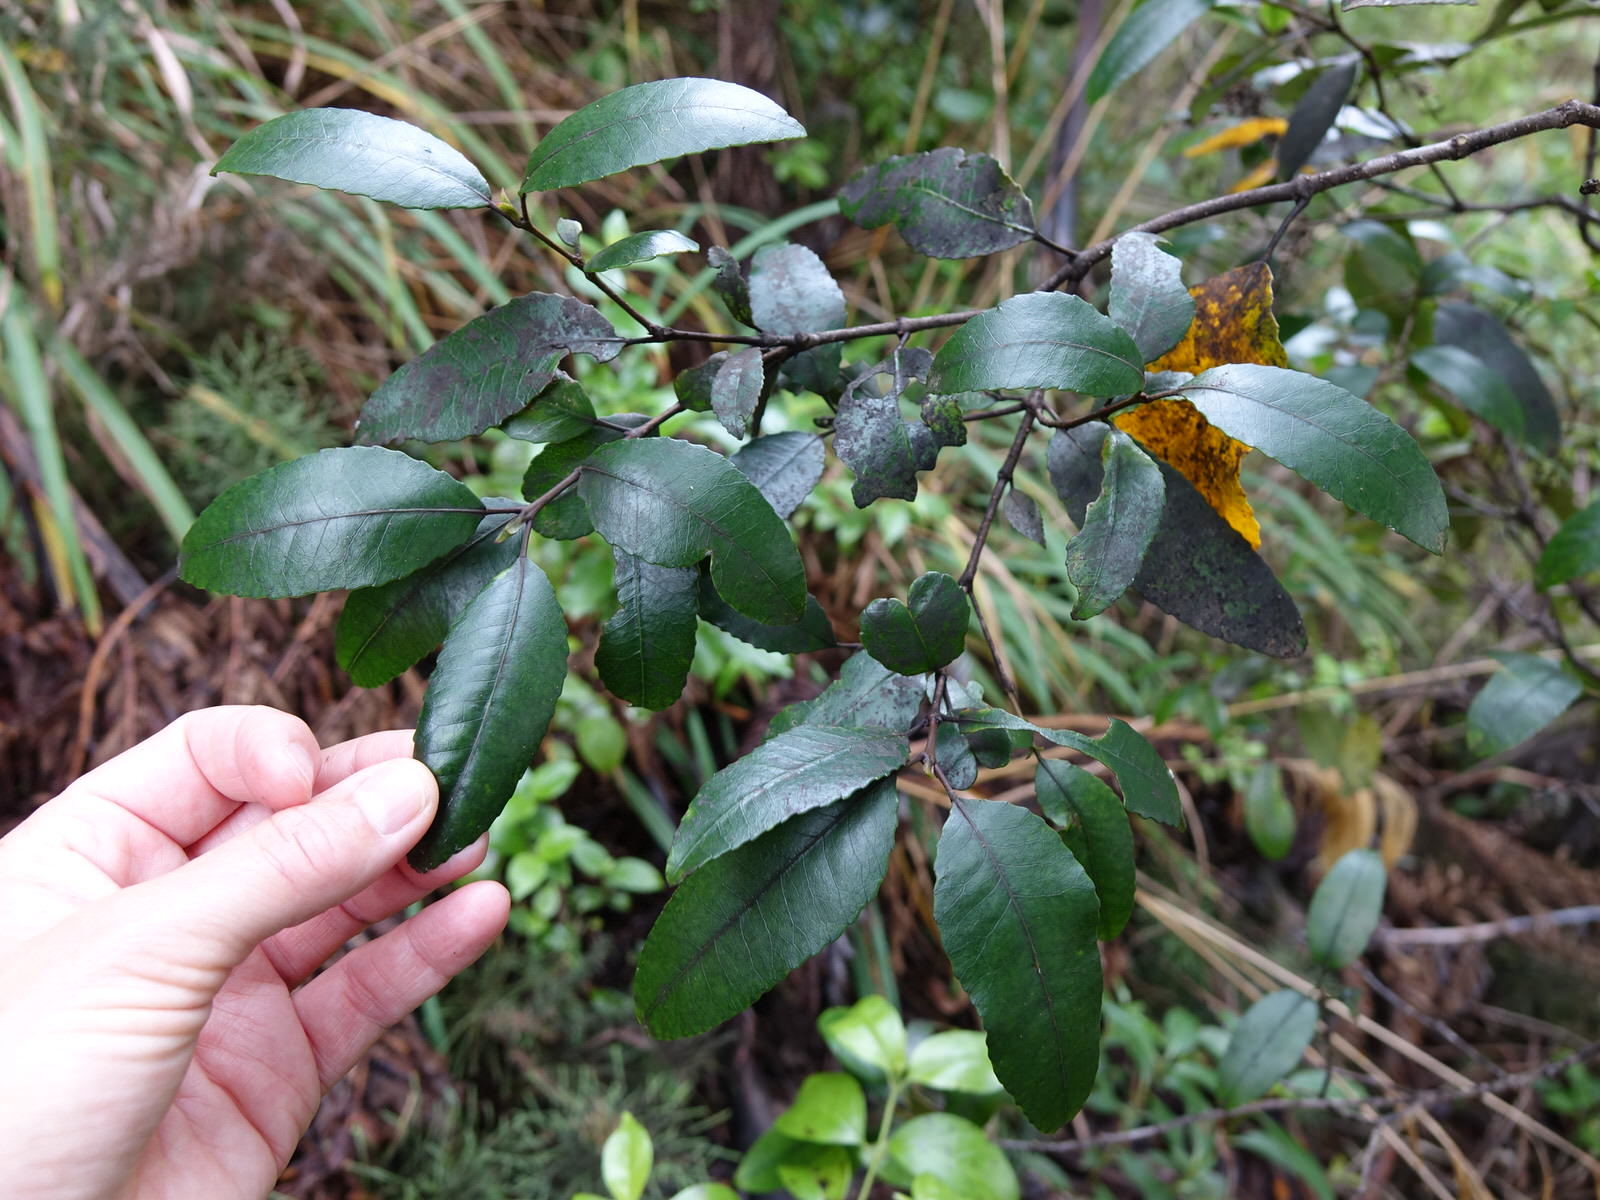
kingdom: Plantae
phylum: Tracheophyta
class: Magnoliopsida
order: Oxalidales
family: Cunoniaceae
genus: Pterophylla
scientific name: Pterophylla racemosa
